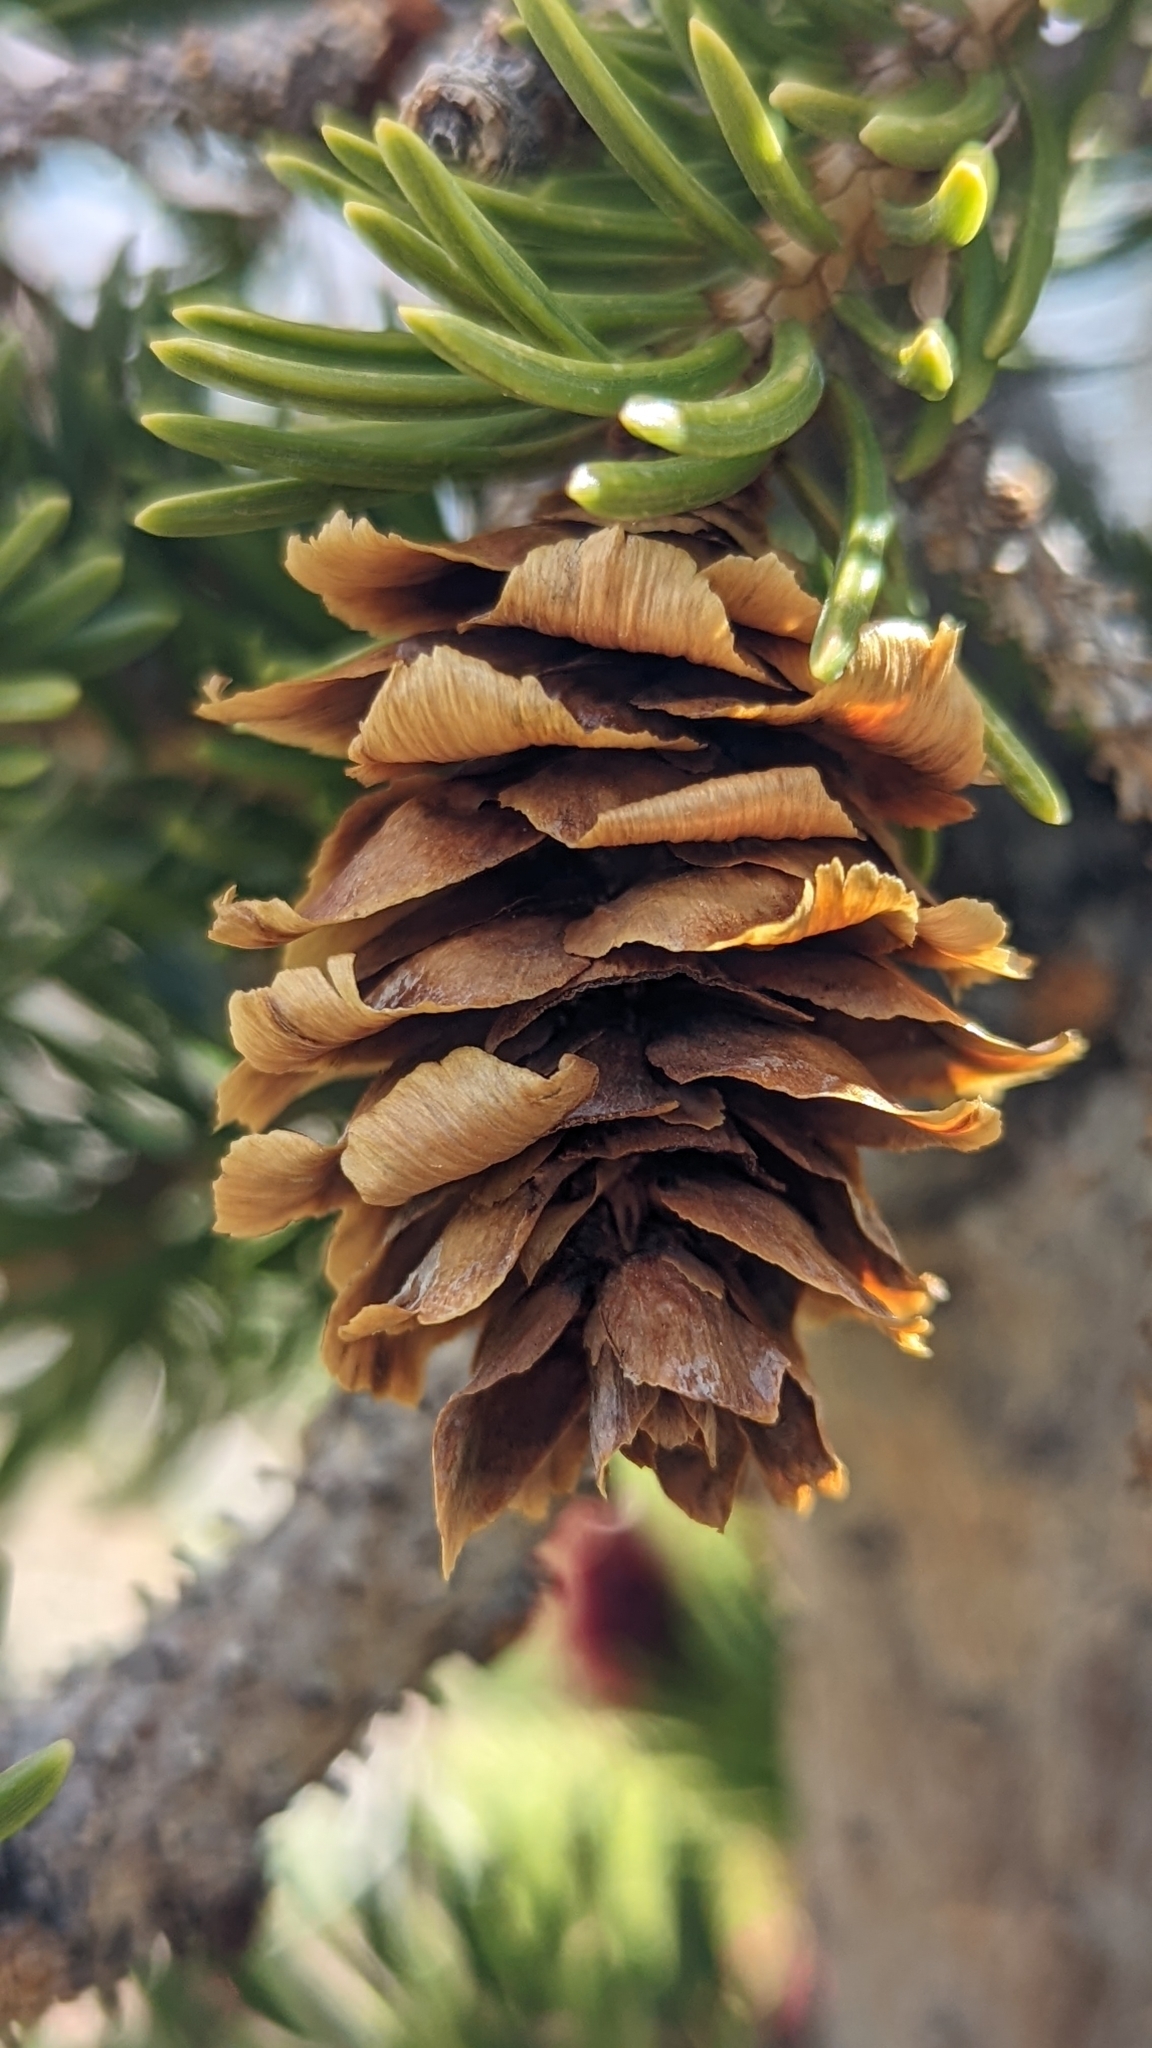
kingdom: Plantae
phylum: Tracheophyta
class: Pinopsida
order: Pinales
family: Pinaceae
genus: Picea
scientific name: Picea engelmannii
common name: Engelmann spruce
